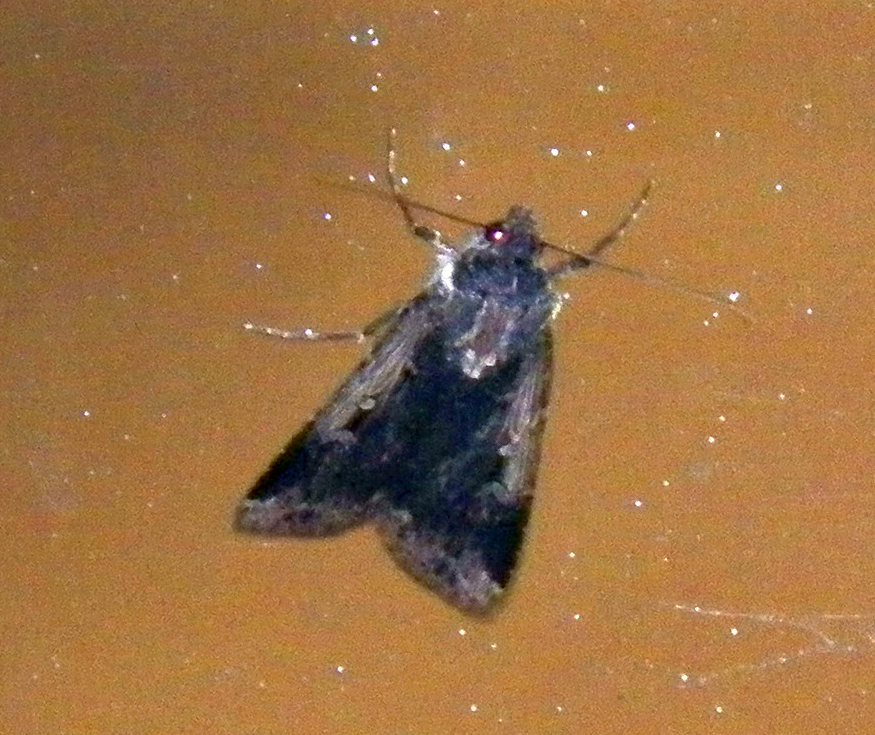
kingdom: Animalia
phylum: Arthropoda
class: Insecta
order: Lepidoptera
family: Noctuidae
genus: Feltia
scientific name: Feltia subterranea
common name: Granulate cutworm
